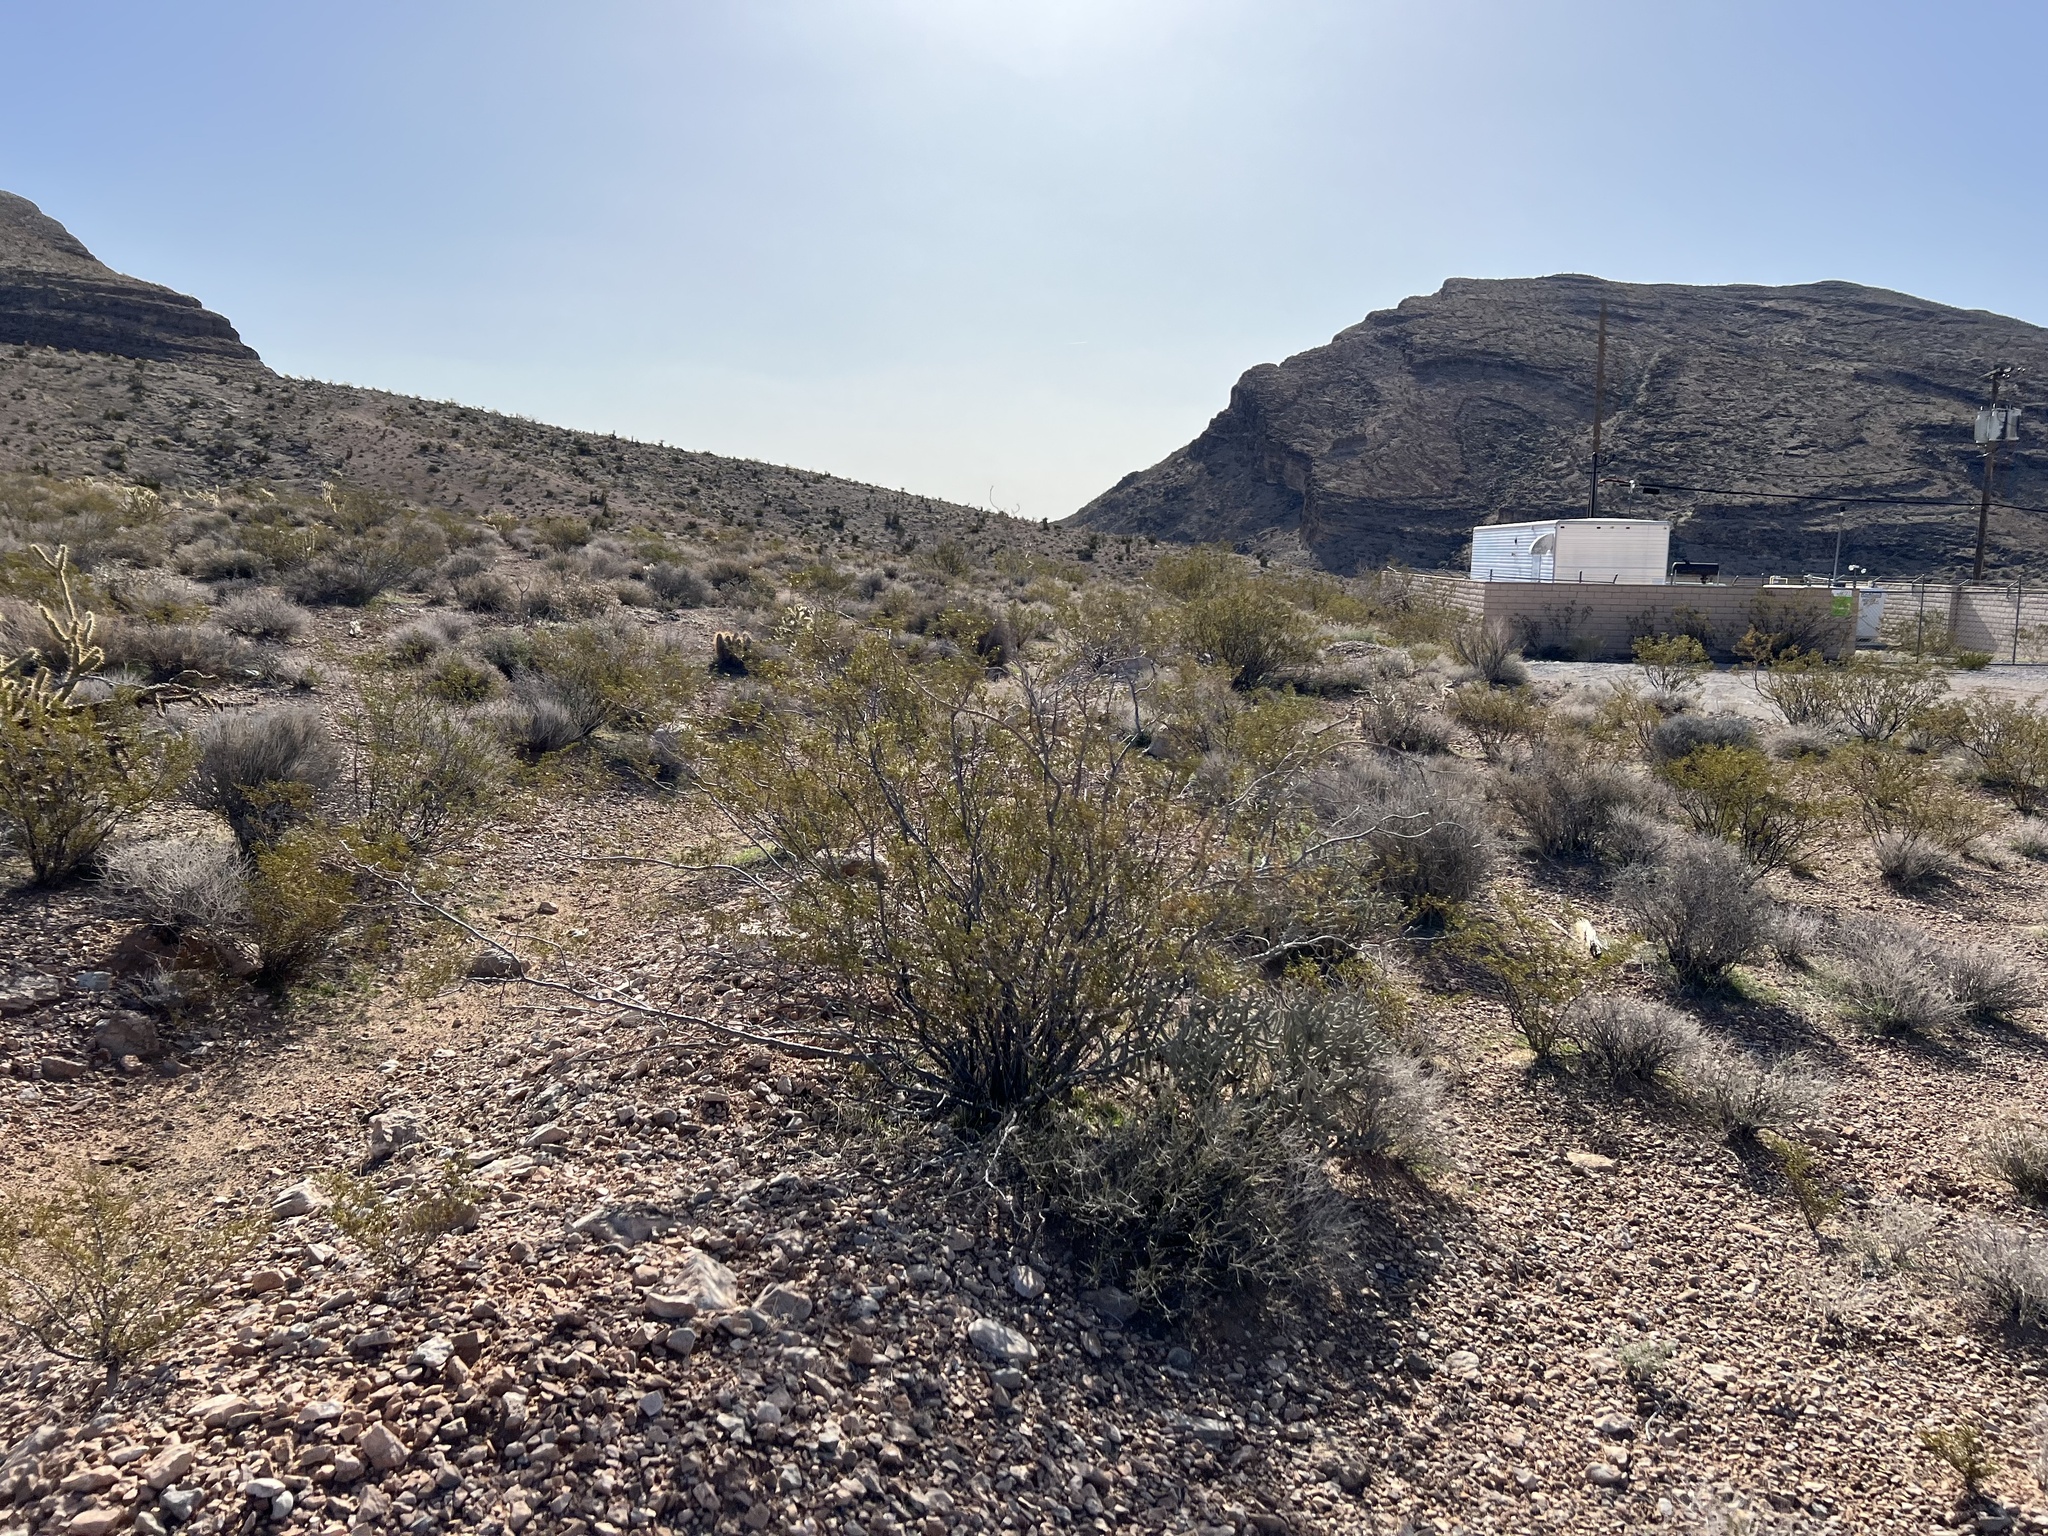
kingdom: Plantae
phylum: Tracheophyta
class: Magnoliopsida
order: Zygophyllales
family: Zygophyllaceae
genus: Larrea
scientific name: Larrea tridentata
